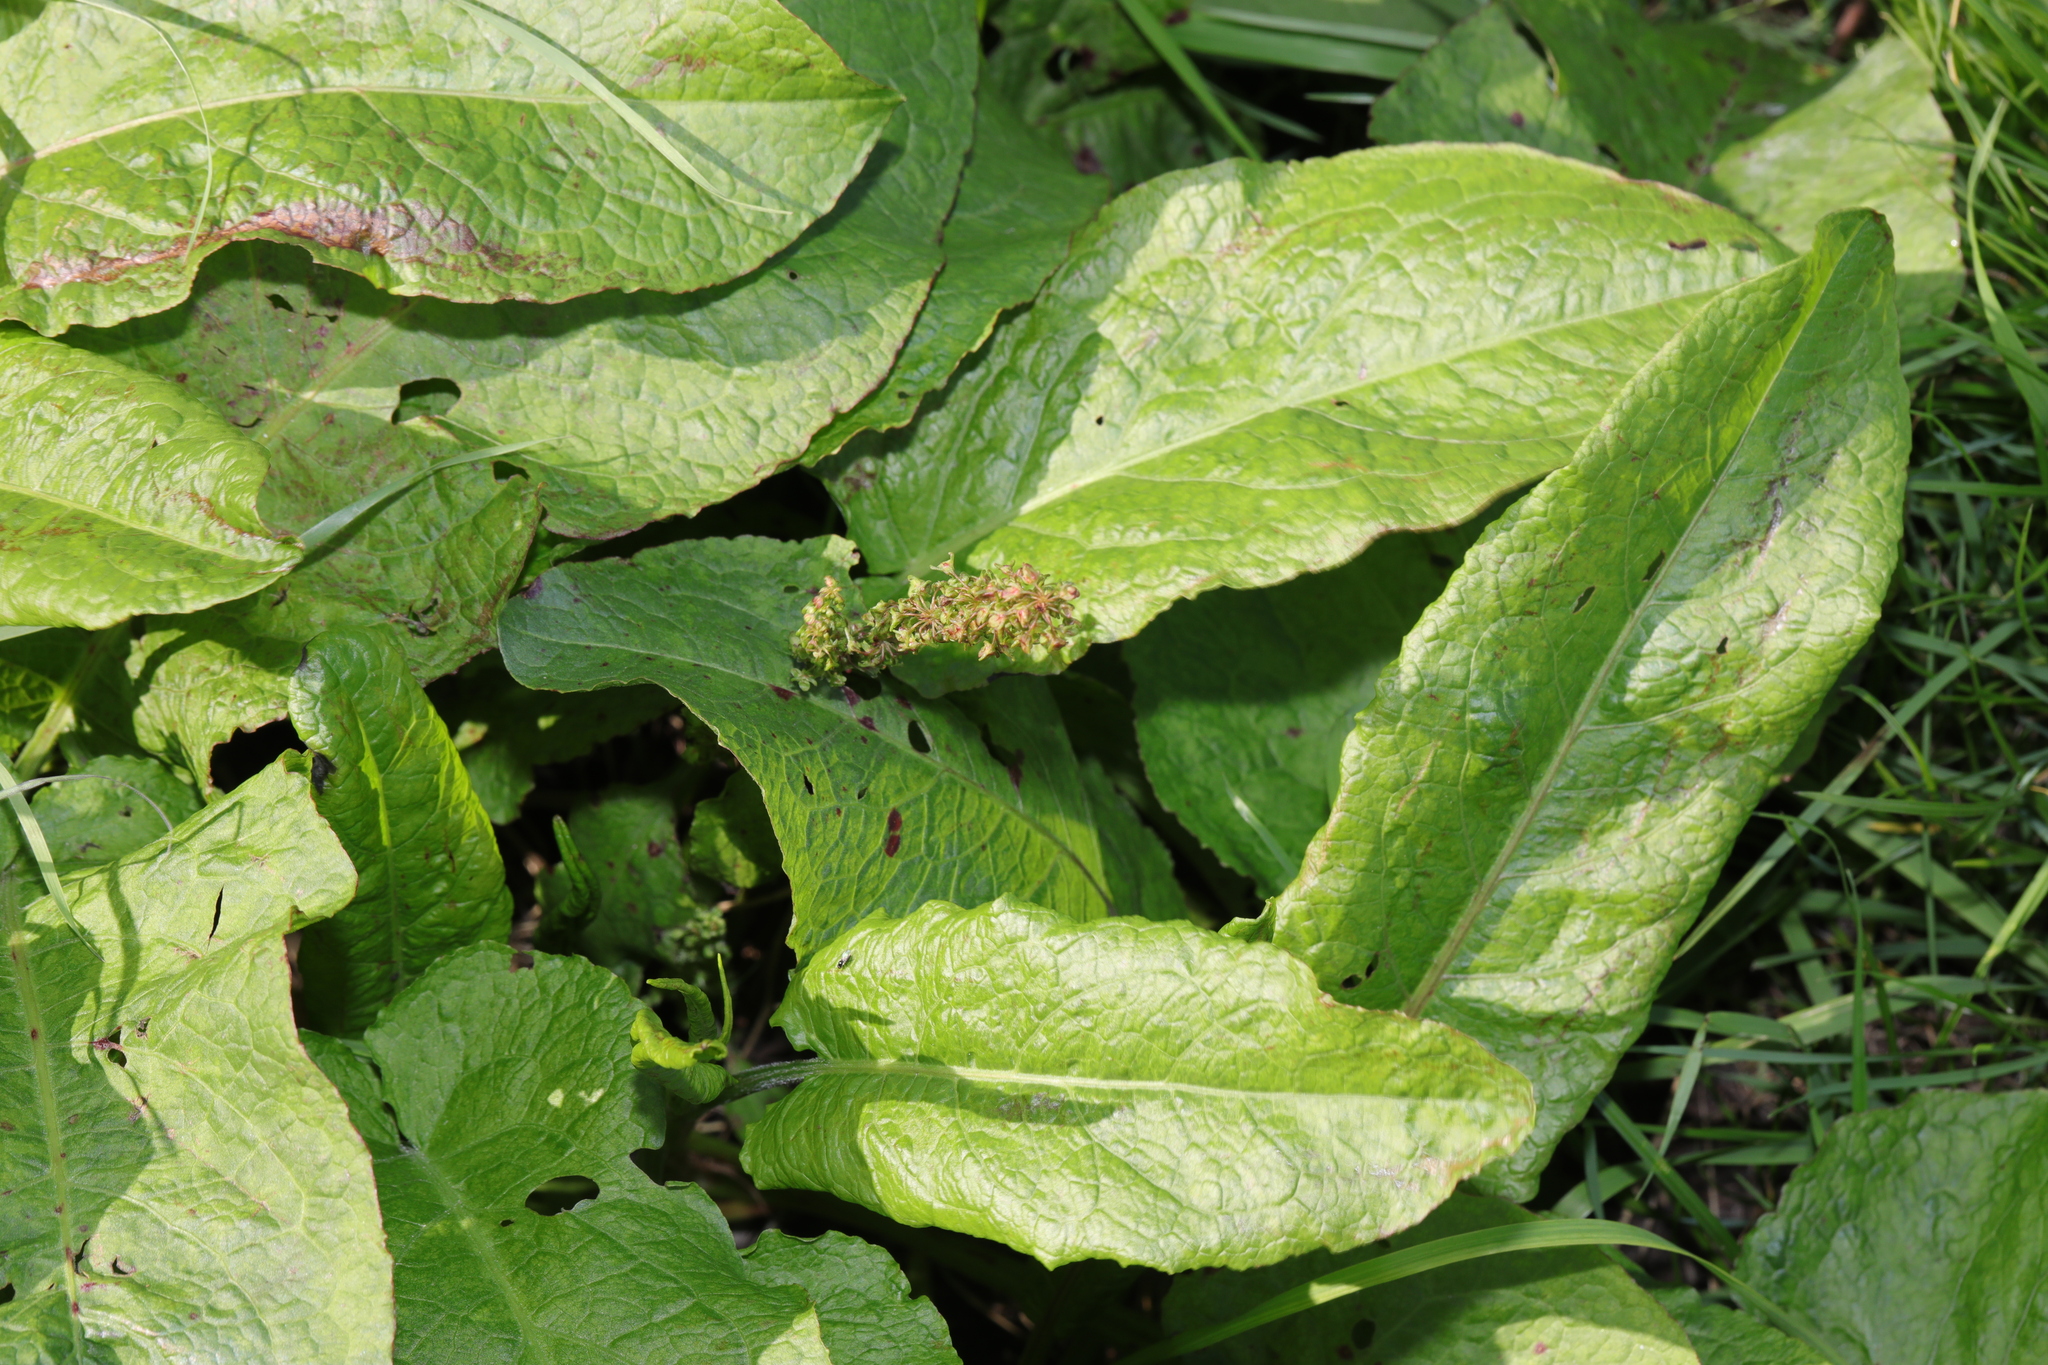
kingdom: Plantae
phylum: Tracheophyta
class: Magnoliopsida
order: Caryophyllales
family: Polygonaceae
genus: Rumex
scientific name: Rumex obtusifolius
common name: Bitter dock
